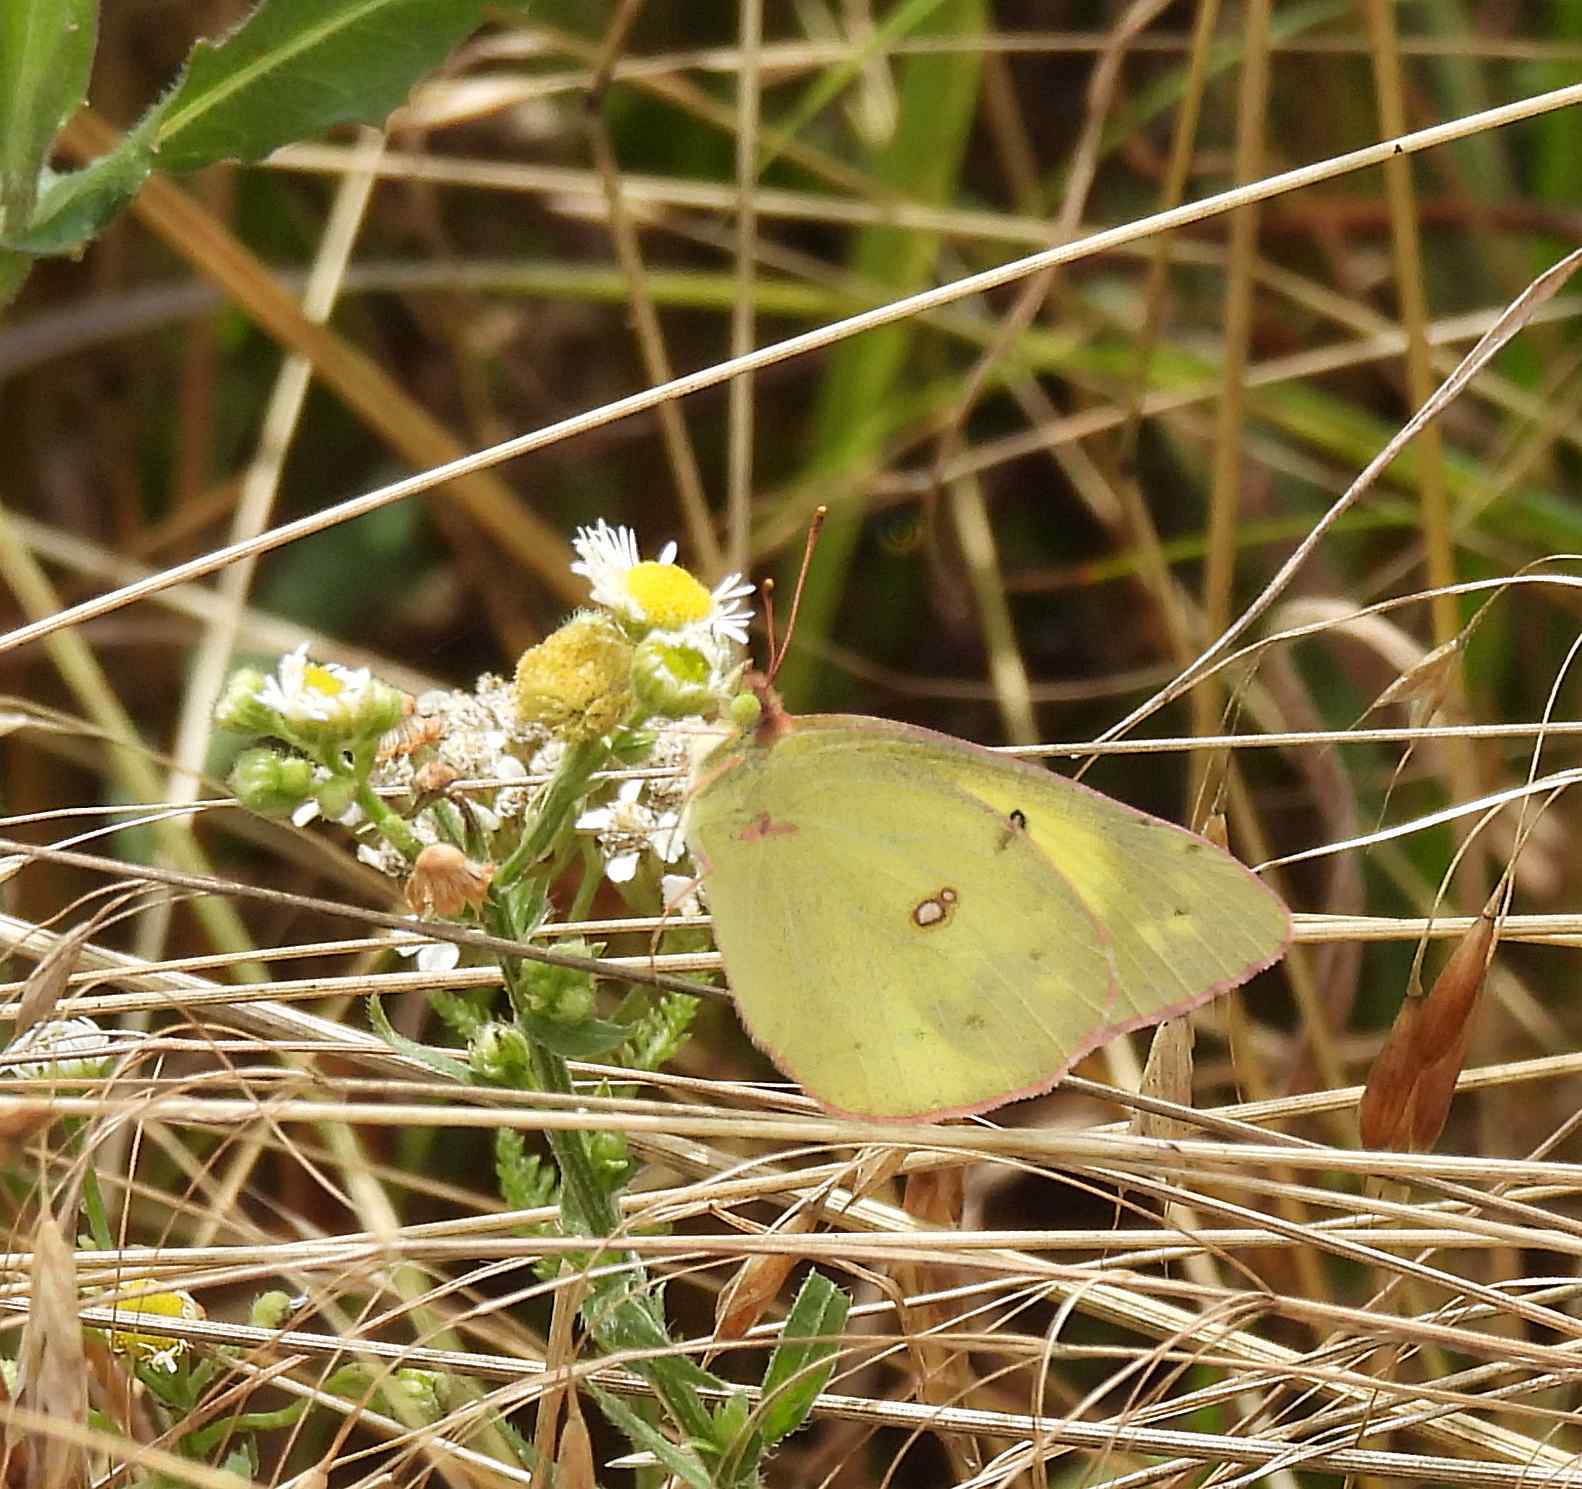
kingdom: Animalia
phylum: Arthropoda
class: Insecta
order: Lepidoptera
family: Pieridae
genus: Colias
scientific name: Colias philodice
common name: Clouded sulphur
